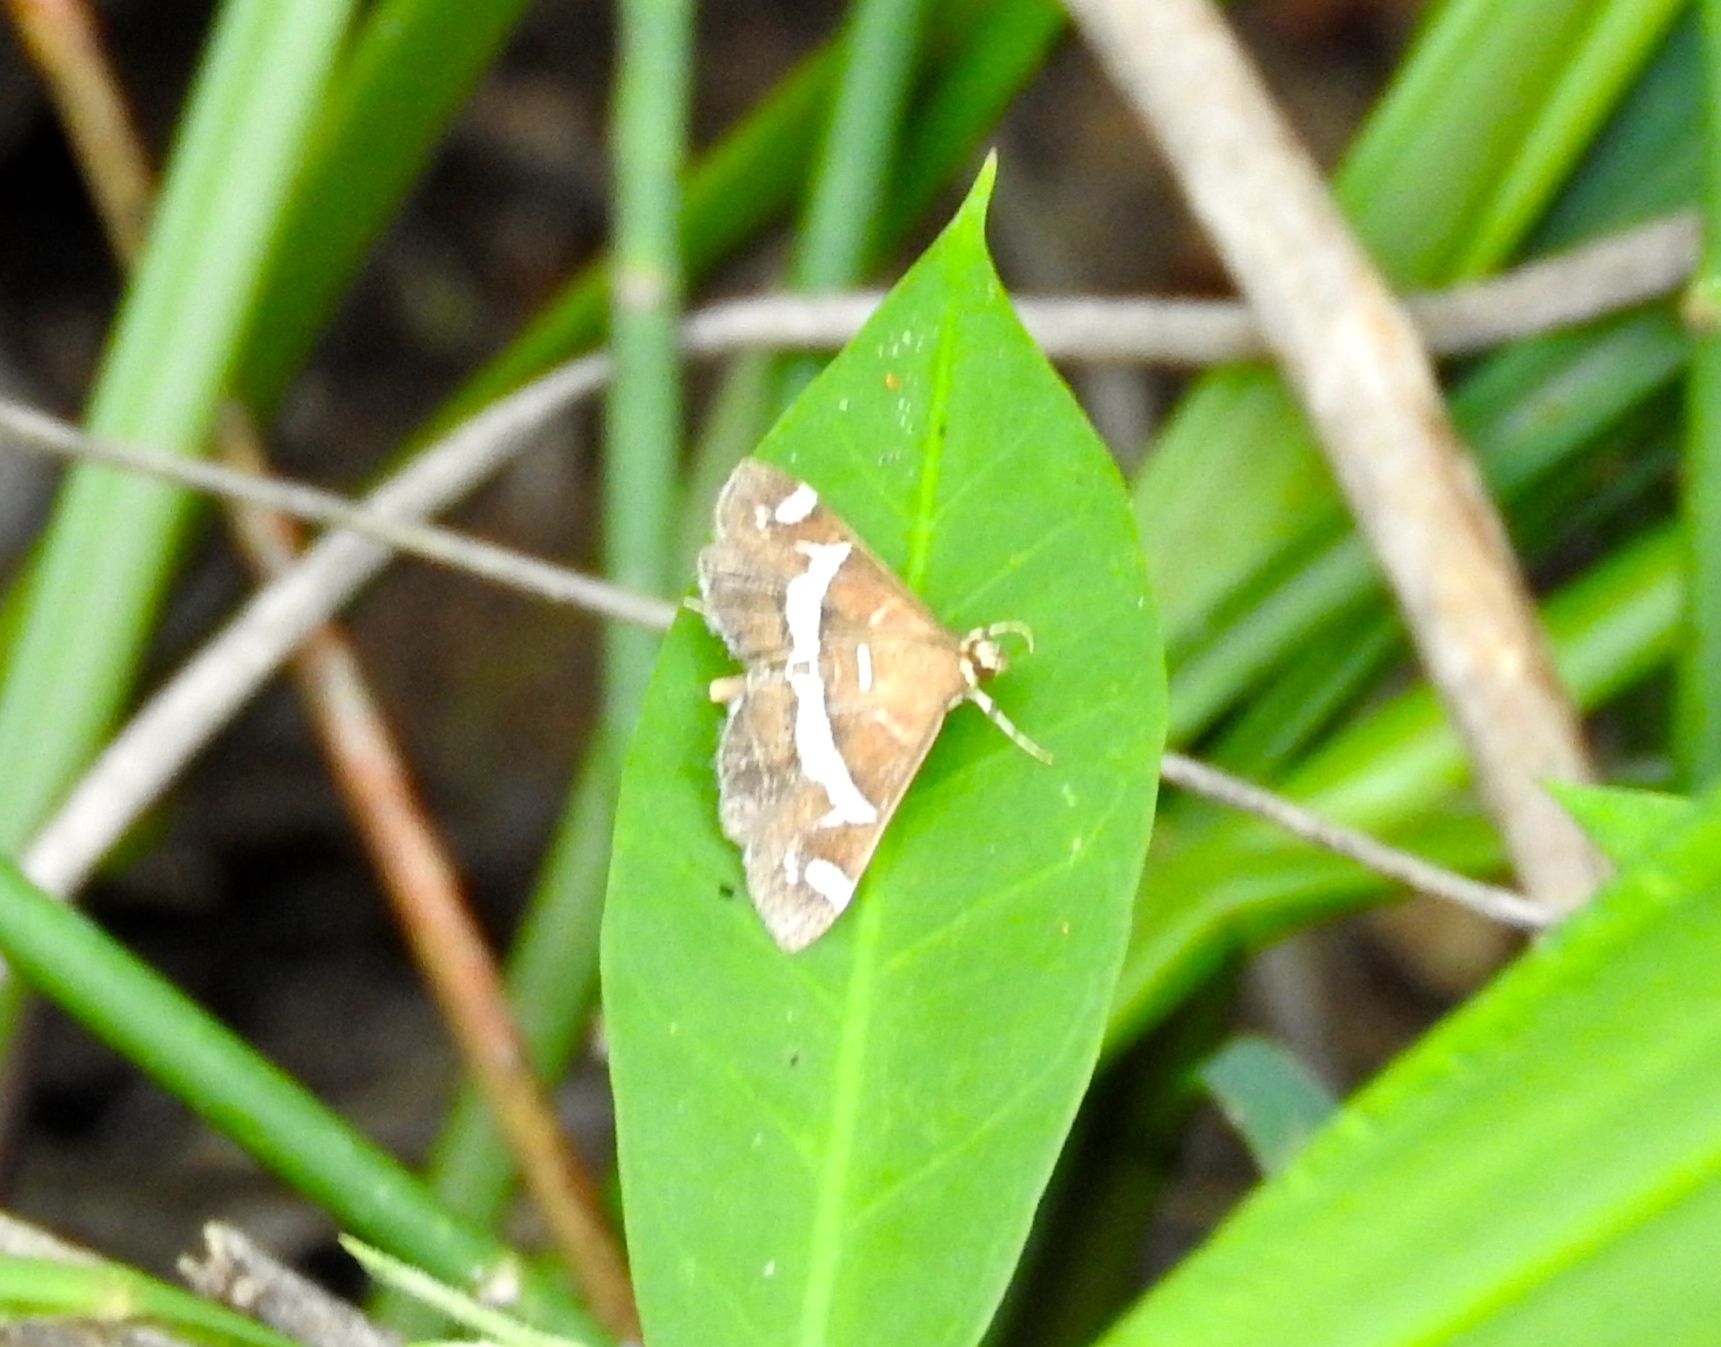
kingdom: Animalia
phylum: Arthropoda
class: Insecta
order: Lepidoptera
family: Crambidae
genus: Spoladea
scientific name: Spoladea recurvalis
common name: Beet webworm moth
